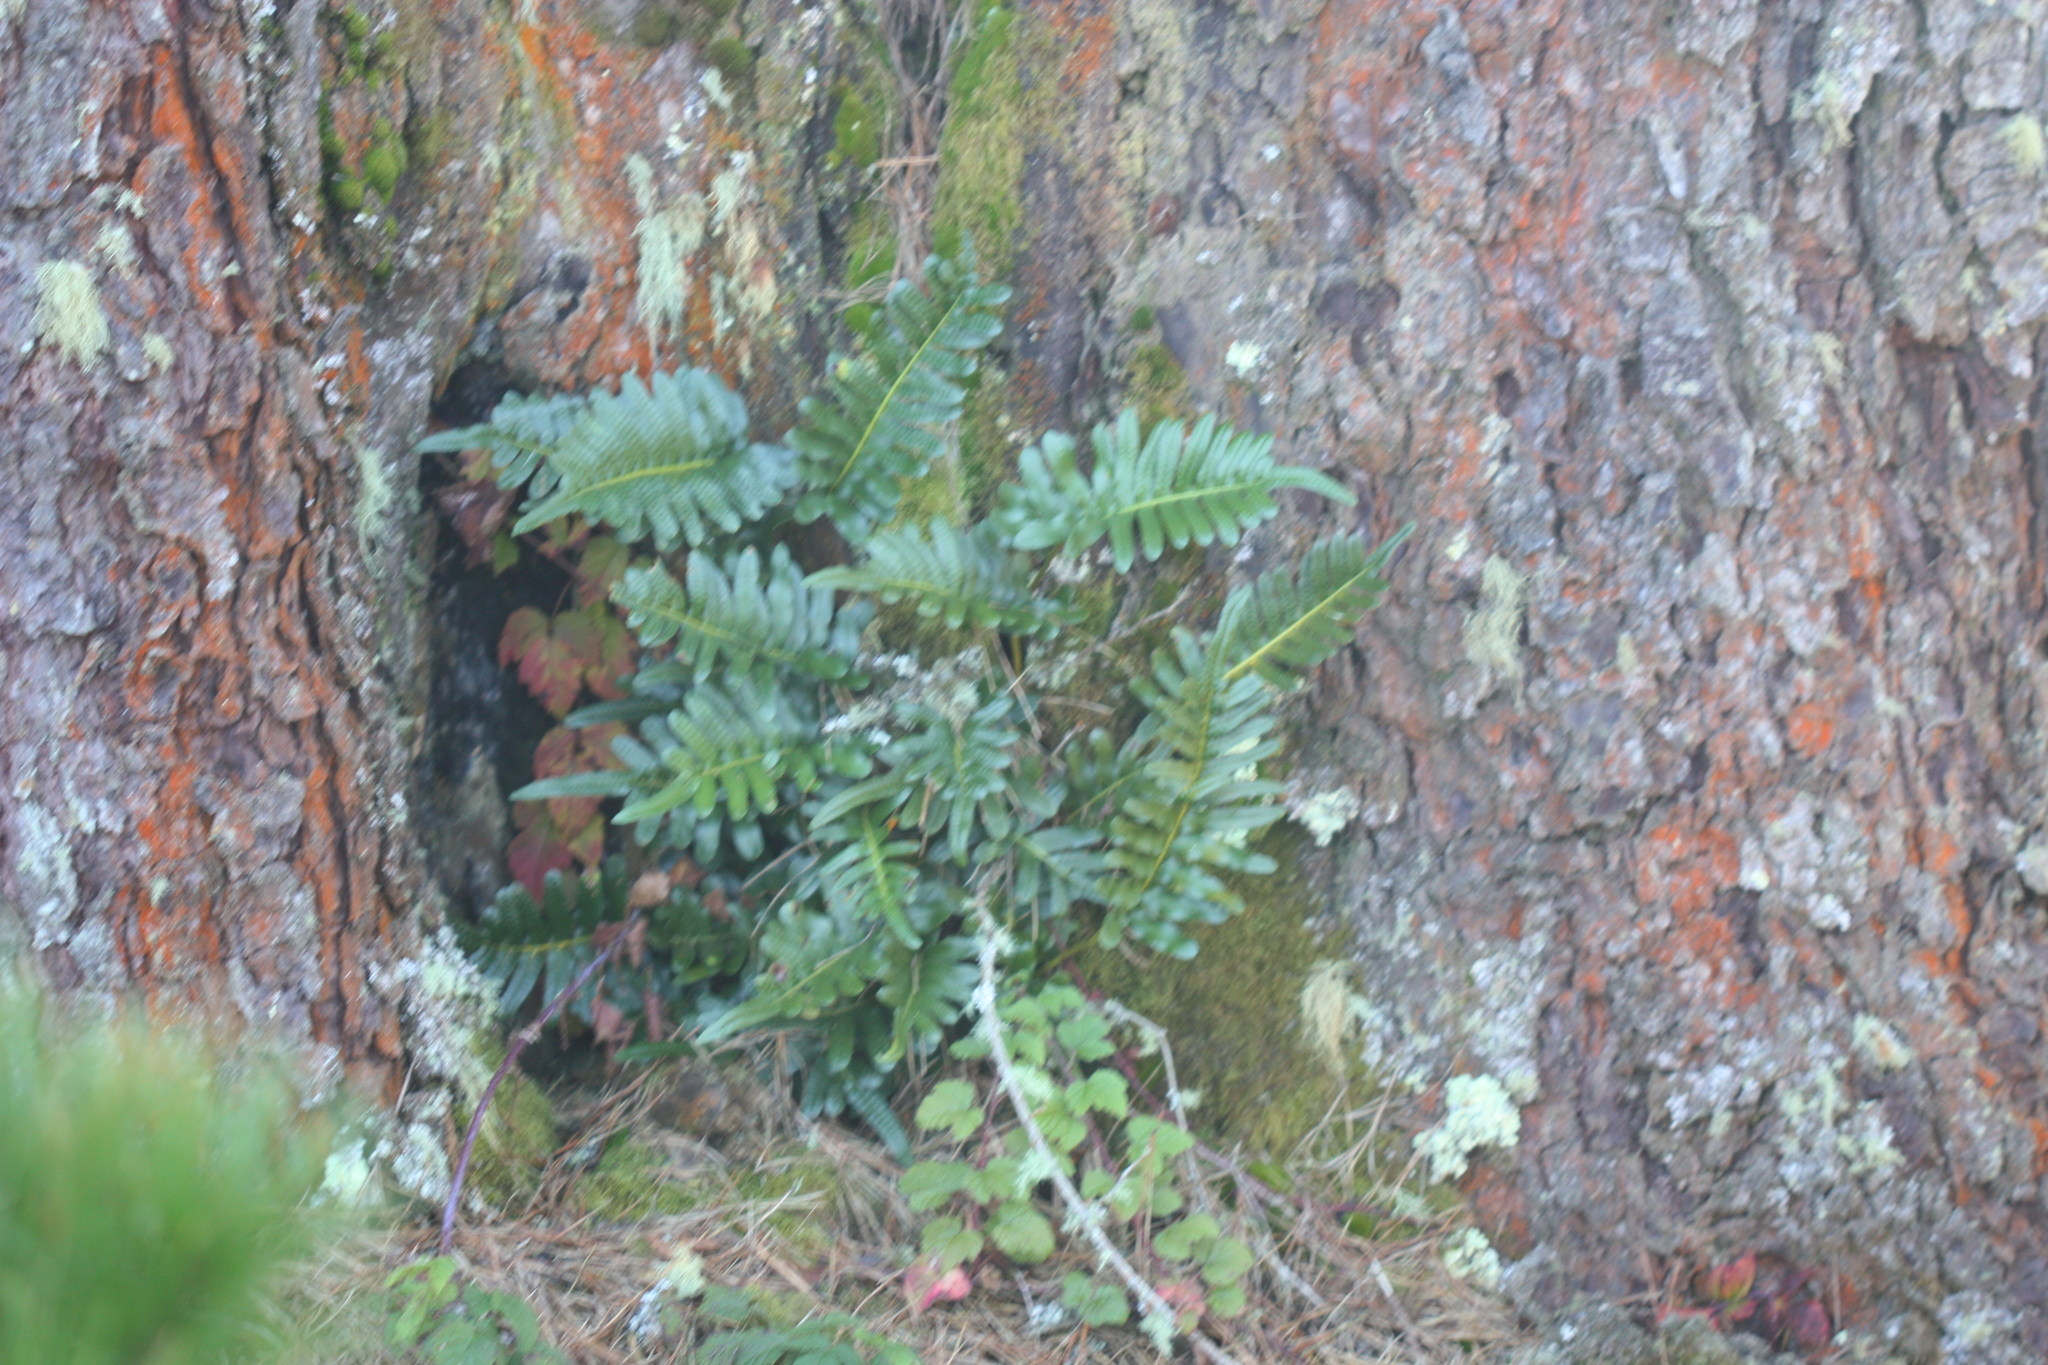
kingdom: Plantae
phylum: Tracheophyta
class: Polypodiopsida
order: Polypodiales
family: Polypodiaceae
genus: Polypodium
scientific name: Polypodium scouleri
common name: Scouler's polypody
